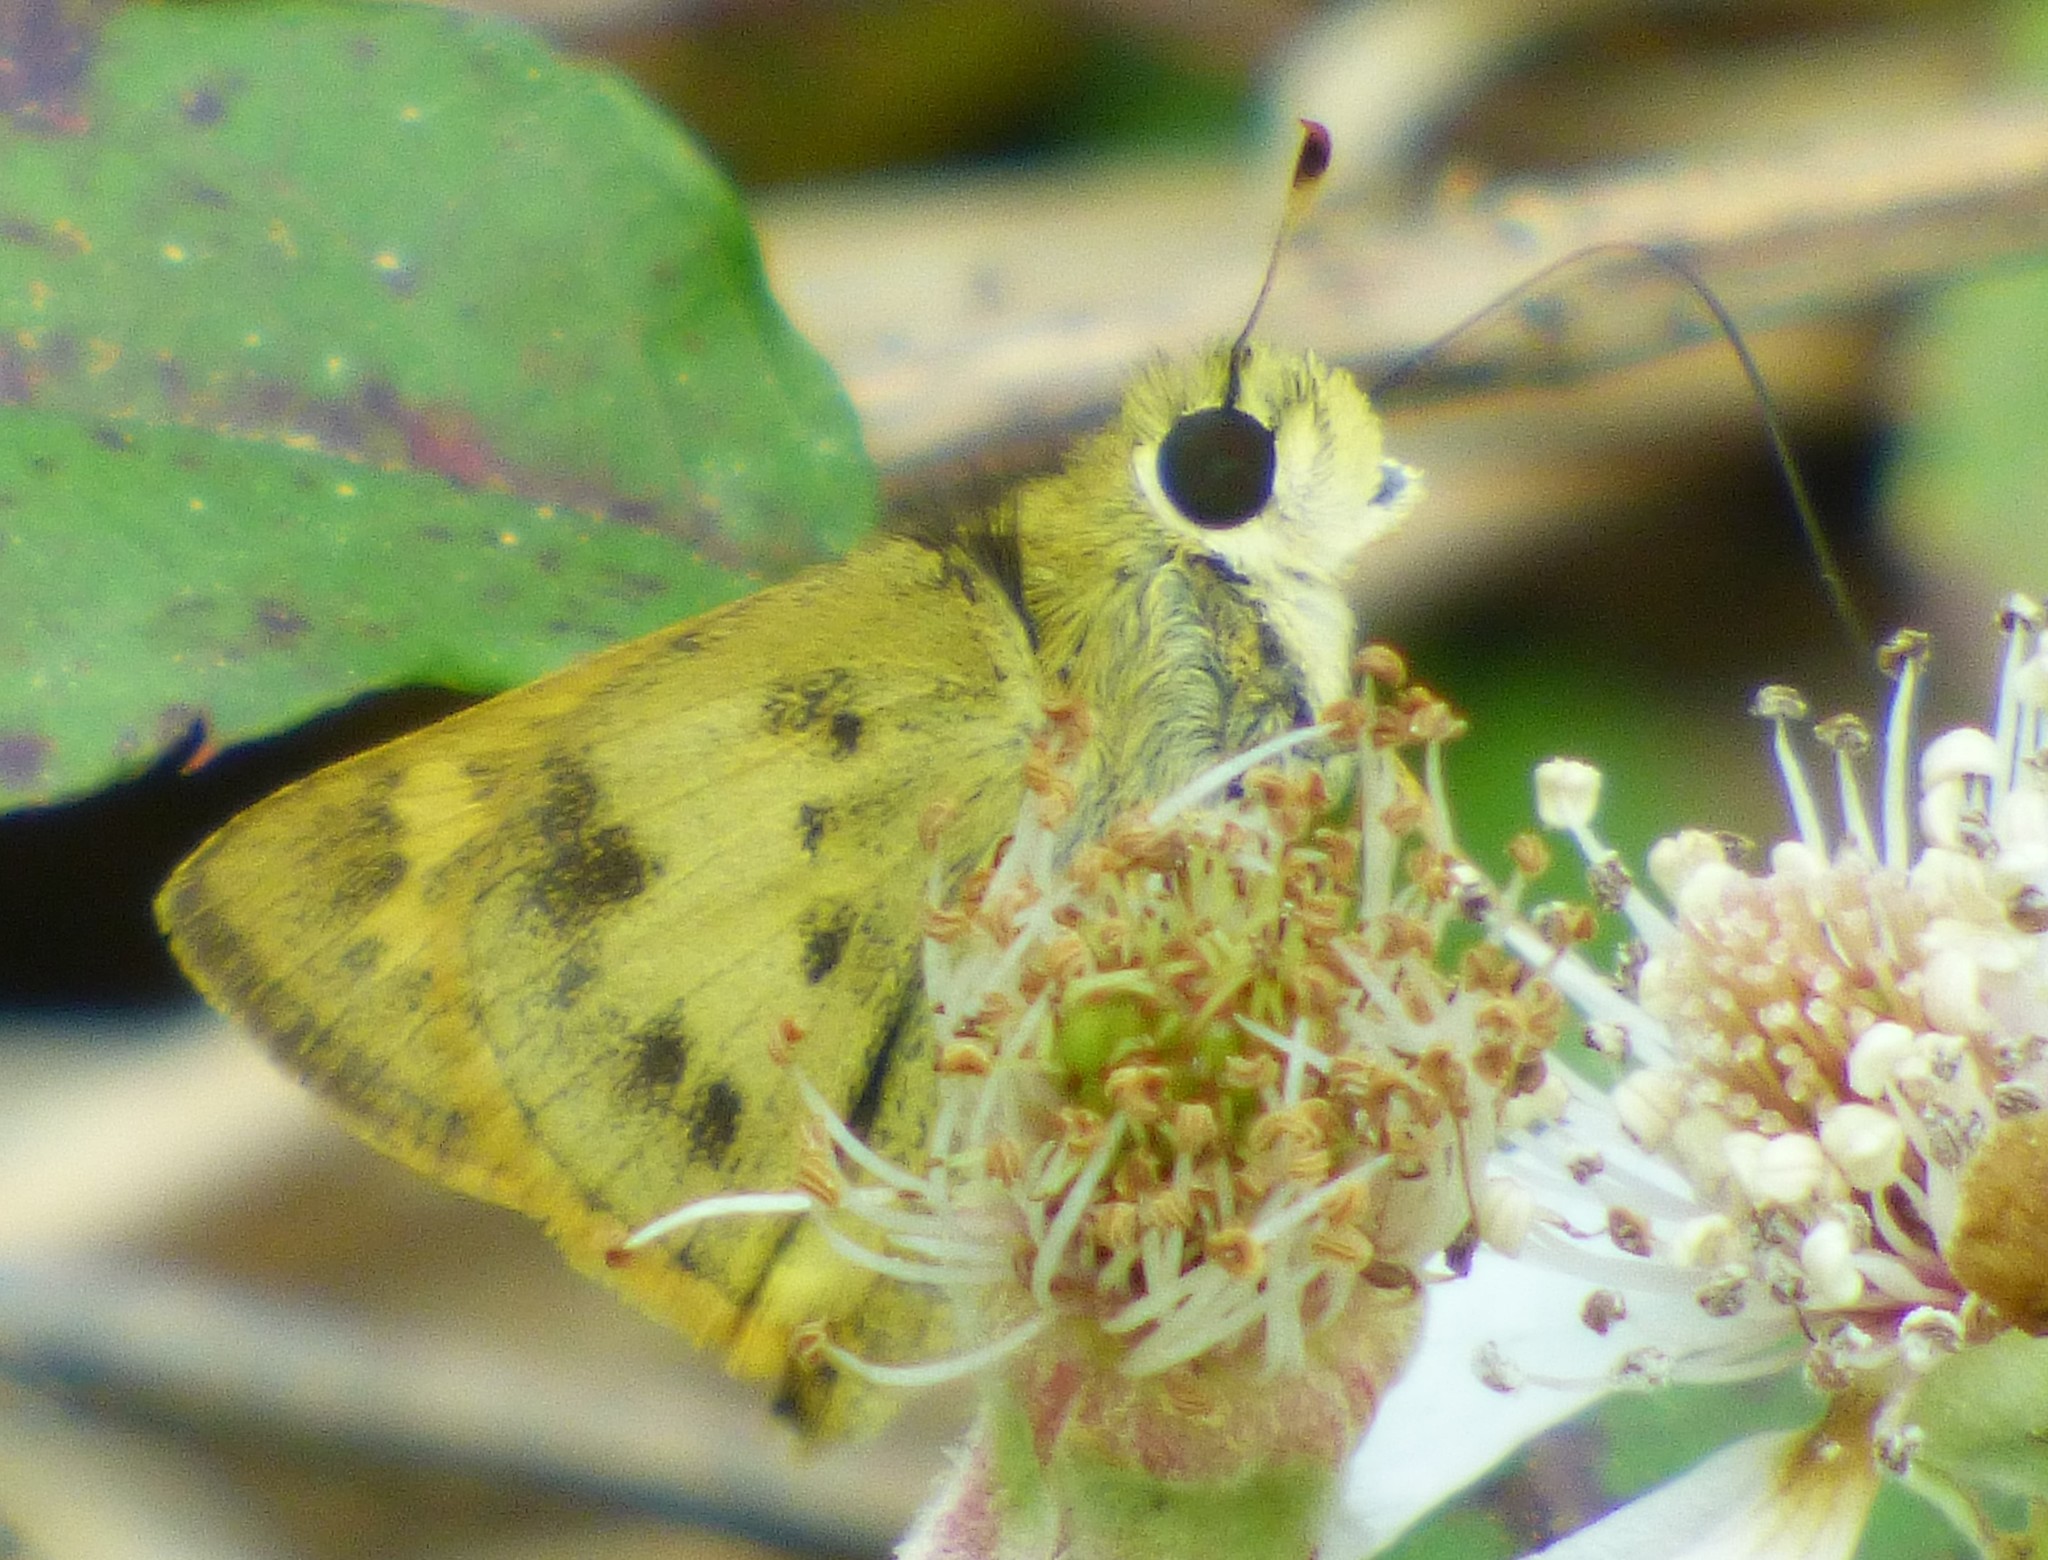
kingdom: Animalia
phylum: Arthropoda
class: Insecta
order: Lepidoptera
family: Hesperiidae
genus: Polites
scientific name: Polites vibex
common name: Whirlabout
